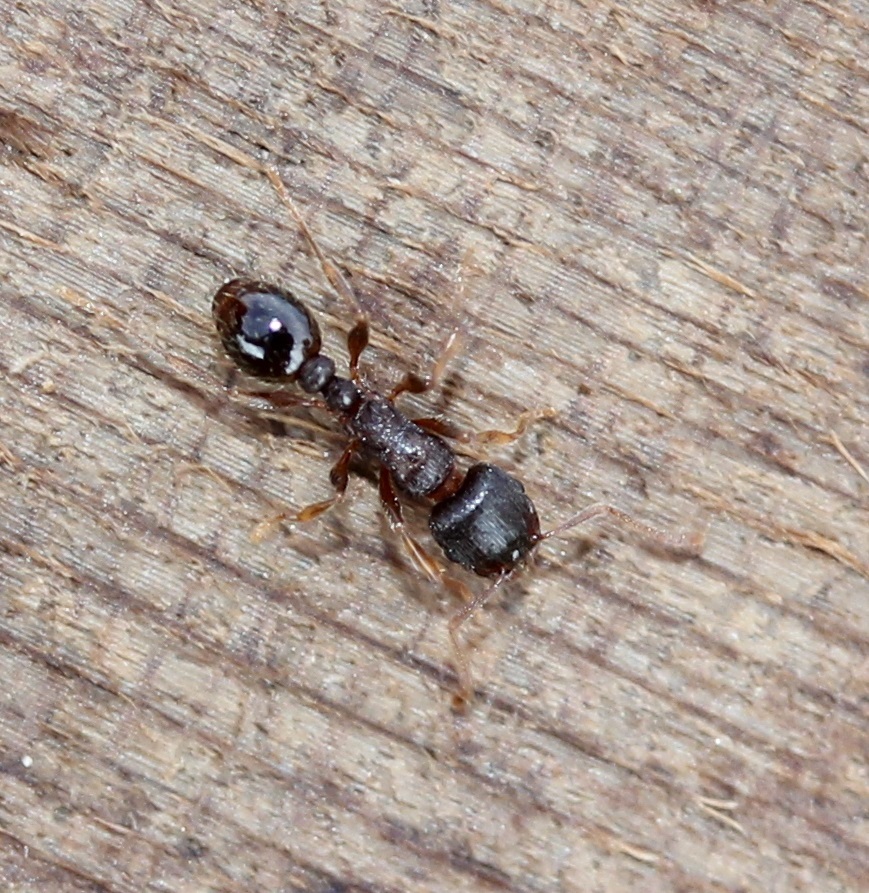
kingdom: Animalia
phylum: Arthropoda
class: Insecta
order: Hymenoptera
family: Formicidae
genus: Tetramorium
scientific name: Tetramorium immigrans
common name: Pavement ant
